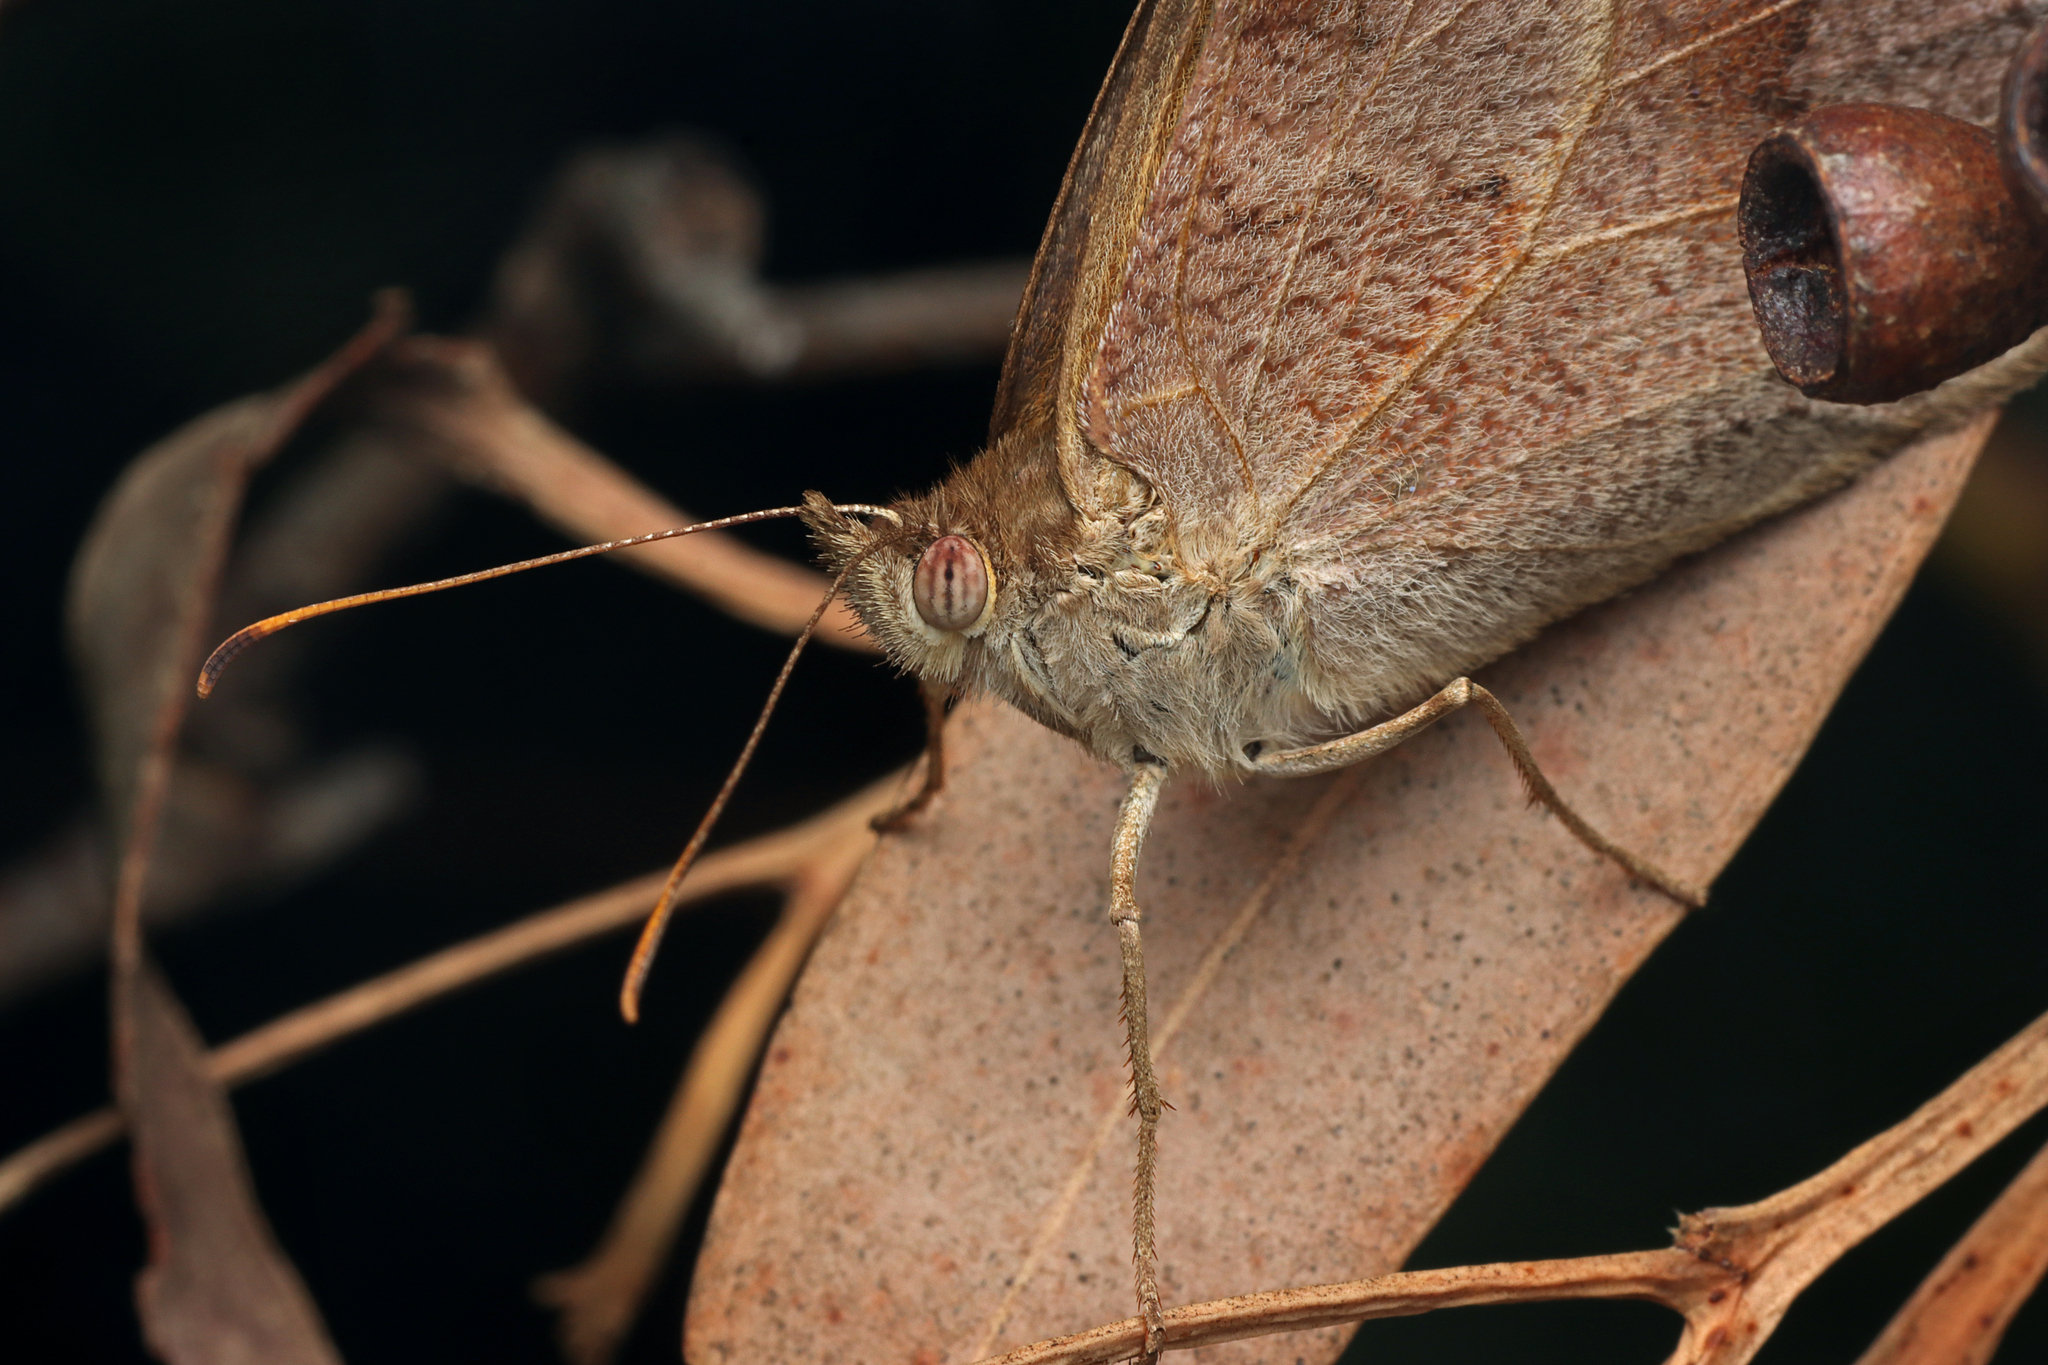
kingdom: Animalia
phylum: Arthropoda
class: Insecta
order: Lepidoptera
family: Nymphalidae
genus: Heteronympha
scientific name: Heteronympha merope
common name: Common brown
